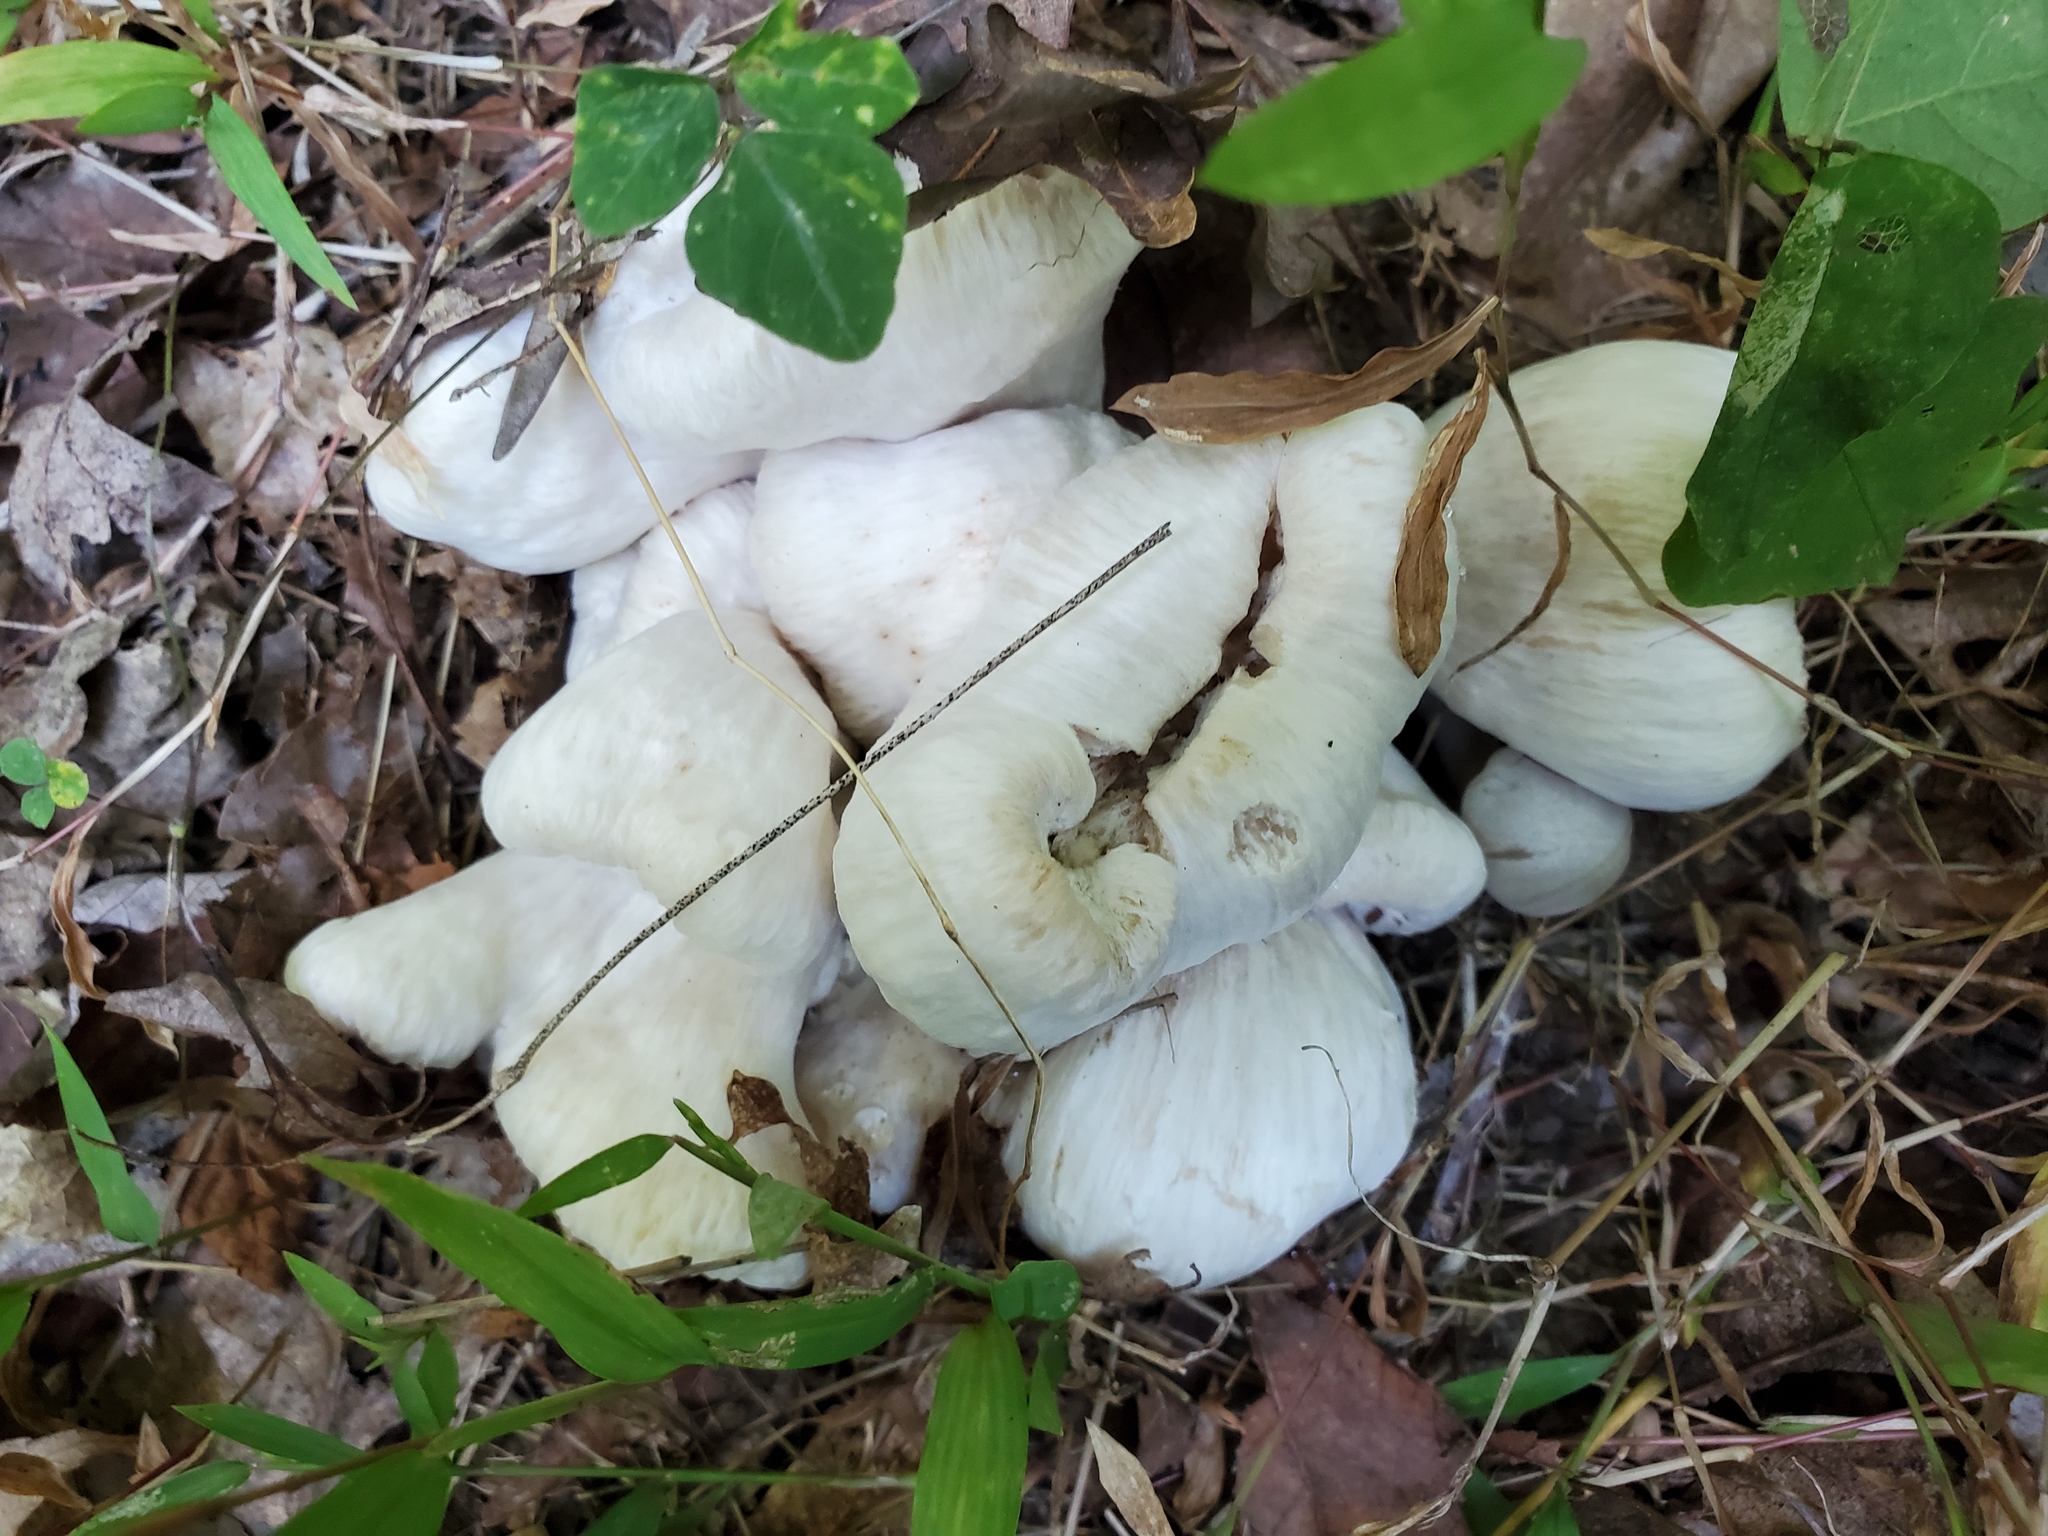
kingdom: Fungi
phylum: Basidiomycota
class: Agaricomycetes
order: Agaricales
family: Entolomataceae
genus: Entoloma
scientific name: Entoloma abortivum
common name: Aborted entoloma
